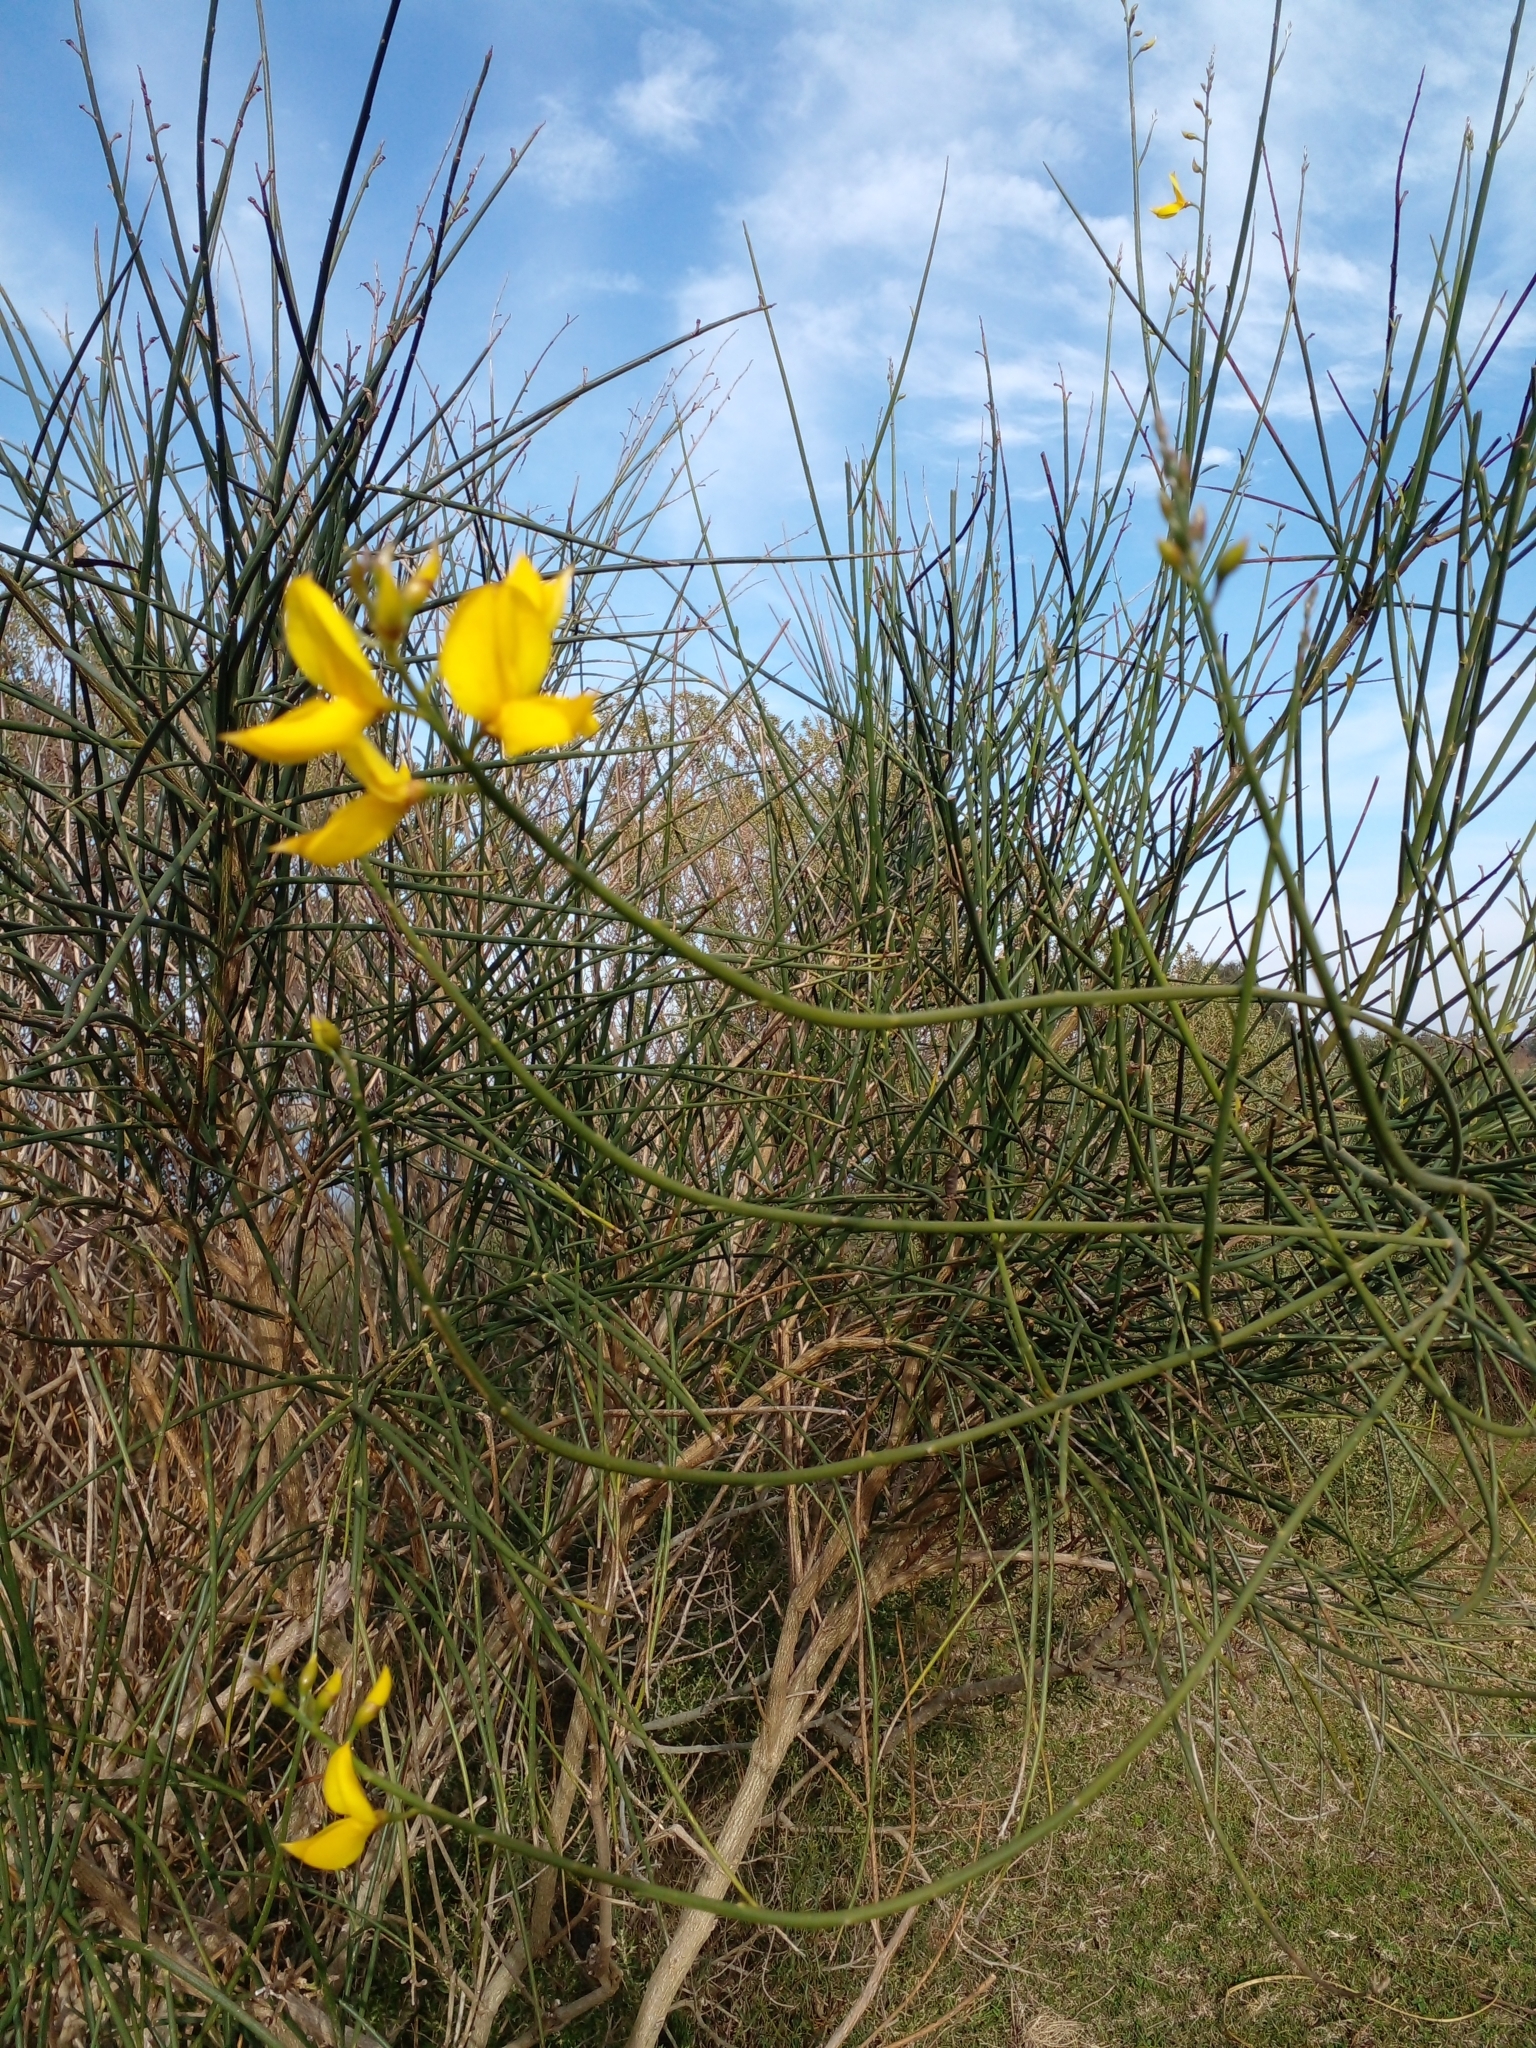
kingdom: Plantae
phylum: Tracheophyta
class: Magnoliopsida
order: Fabales
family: Fabaceae
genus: Spartium
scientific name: Spartium junceum
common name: Spanish broom
